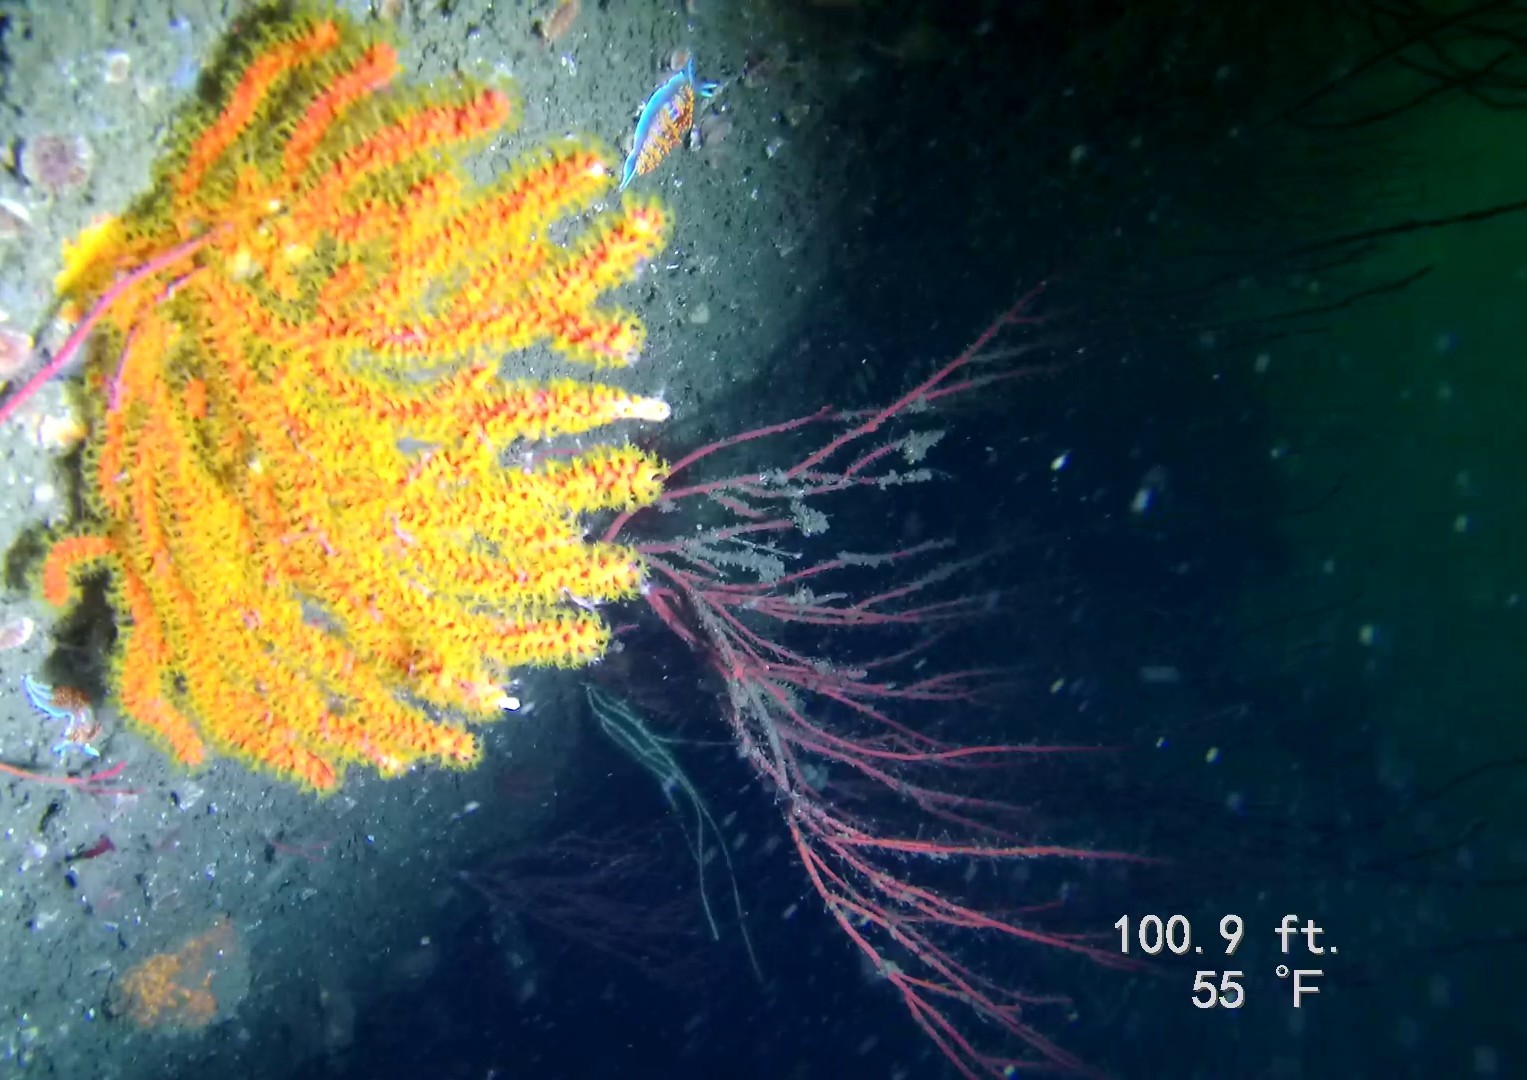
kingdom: Animalia
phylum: Cnidaria
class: Anthozoa
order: Malacalcyonacea
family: Plexauridae
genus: Muricea
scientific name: Muricea californica
